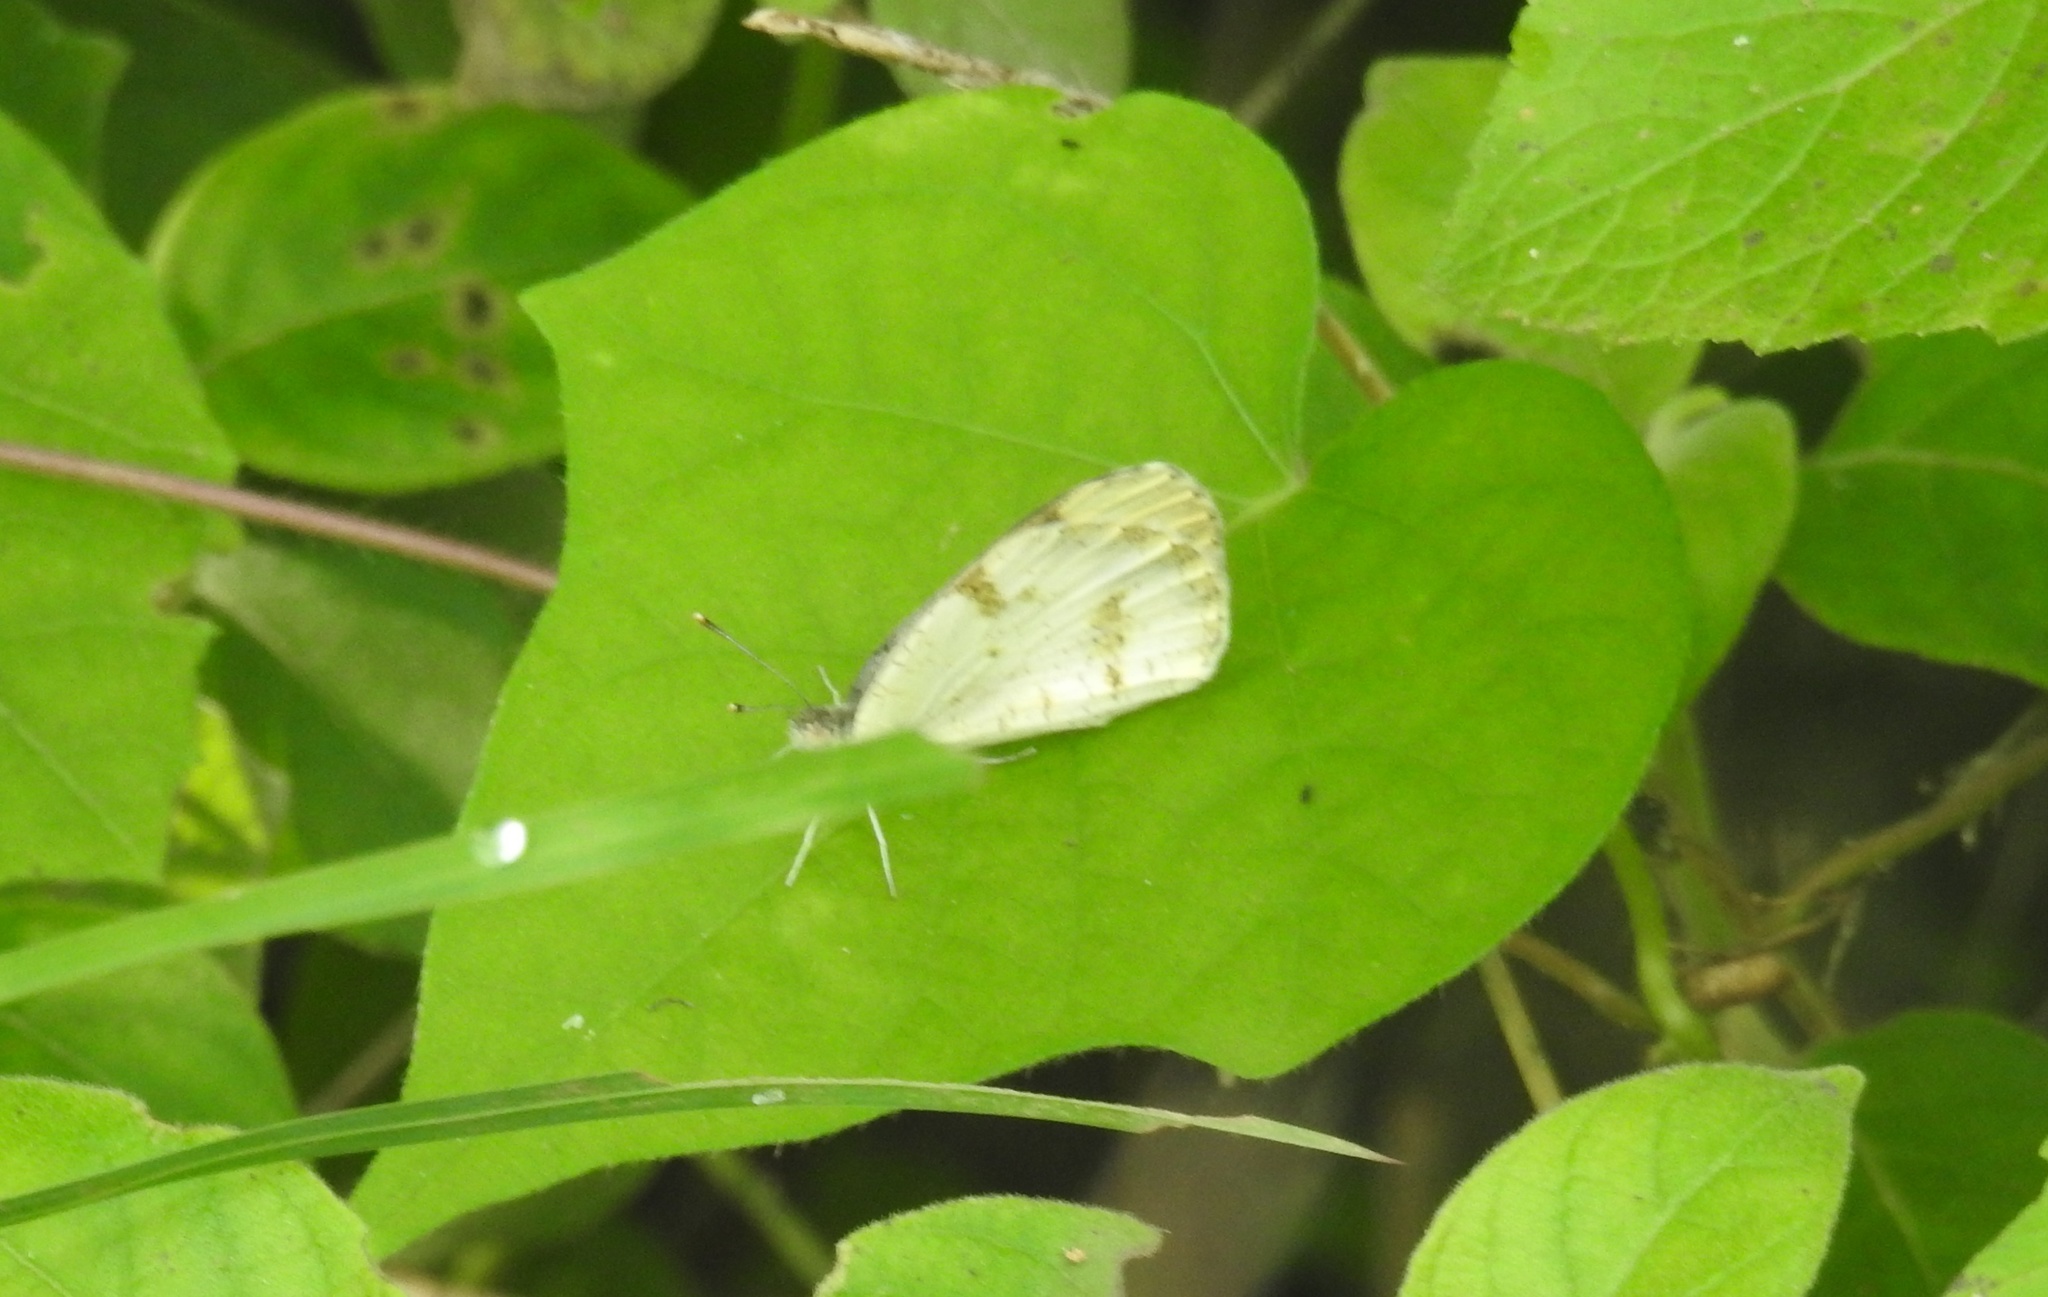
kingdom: Animalia
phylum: Arthropoda
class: Insecta
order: Lepidoptera
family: Pieridae
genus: Colotis
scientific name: Colotis aurora
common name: Plain orange-tip
